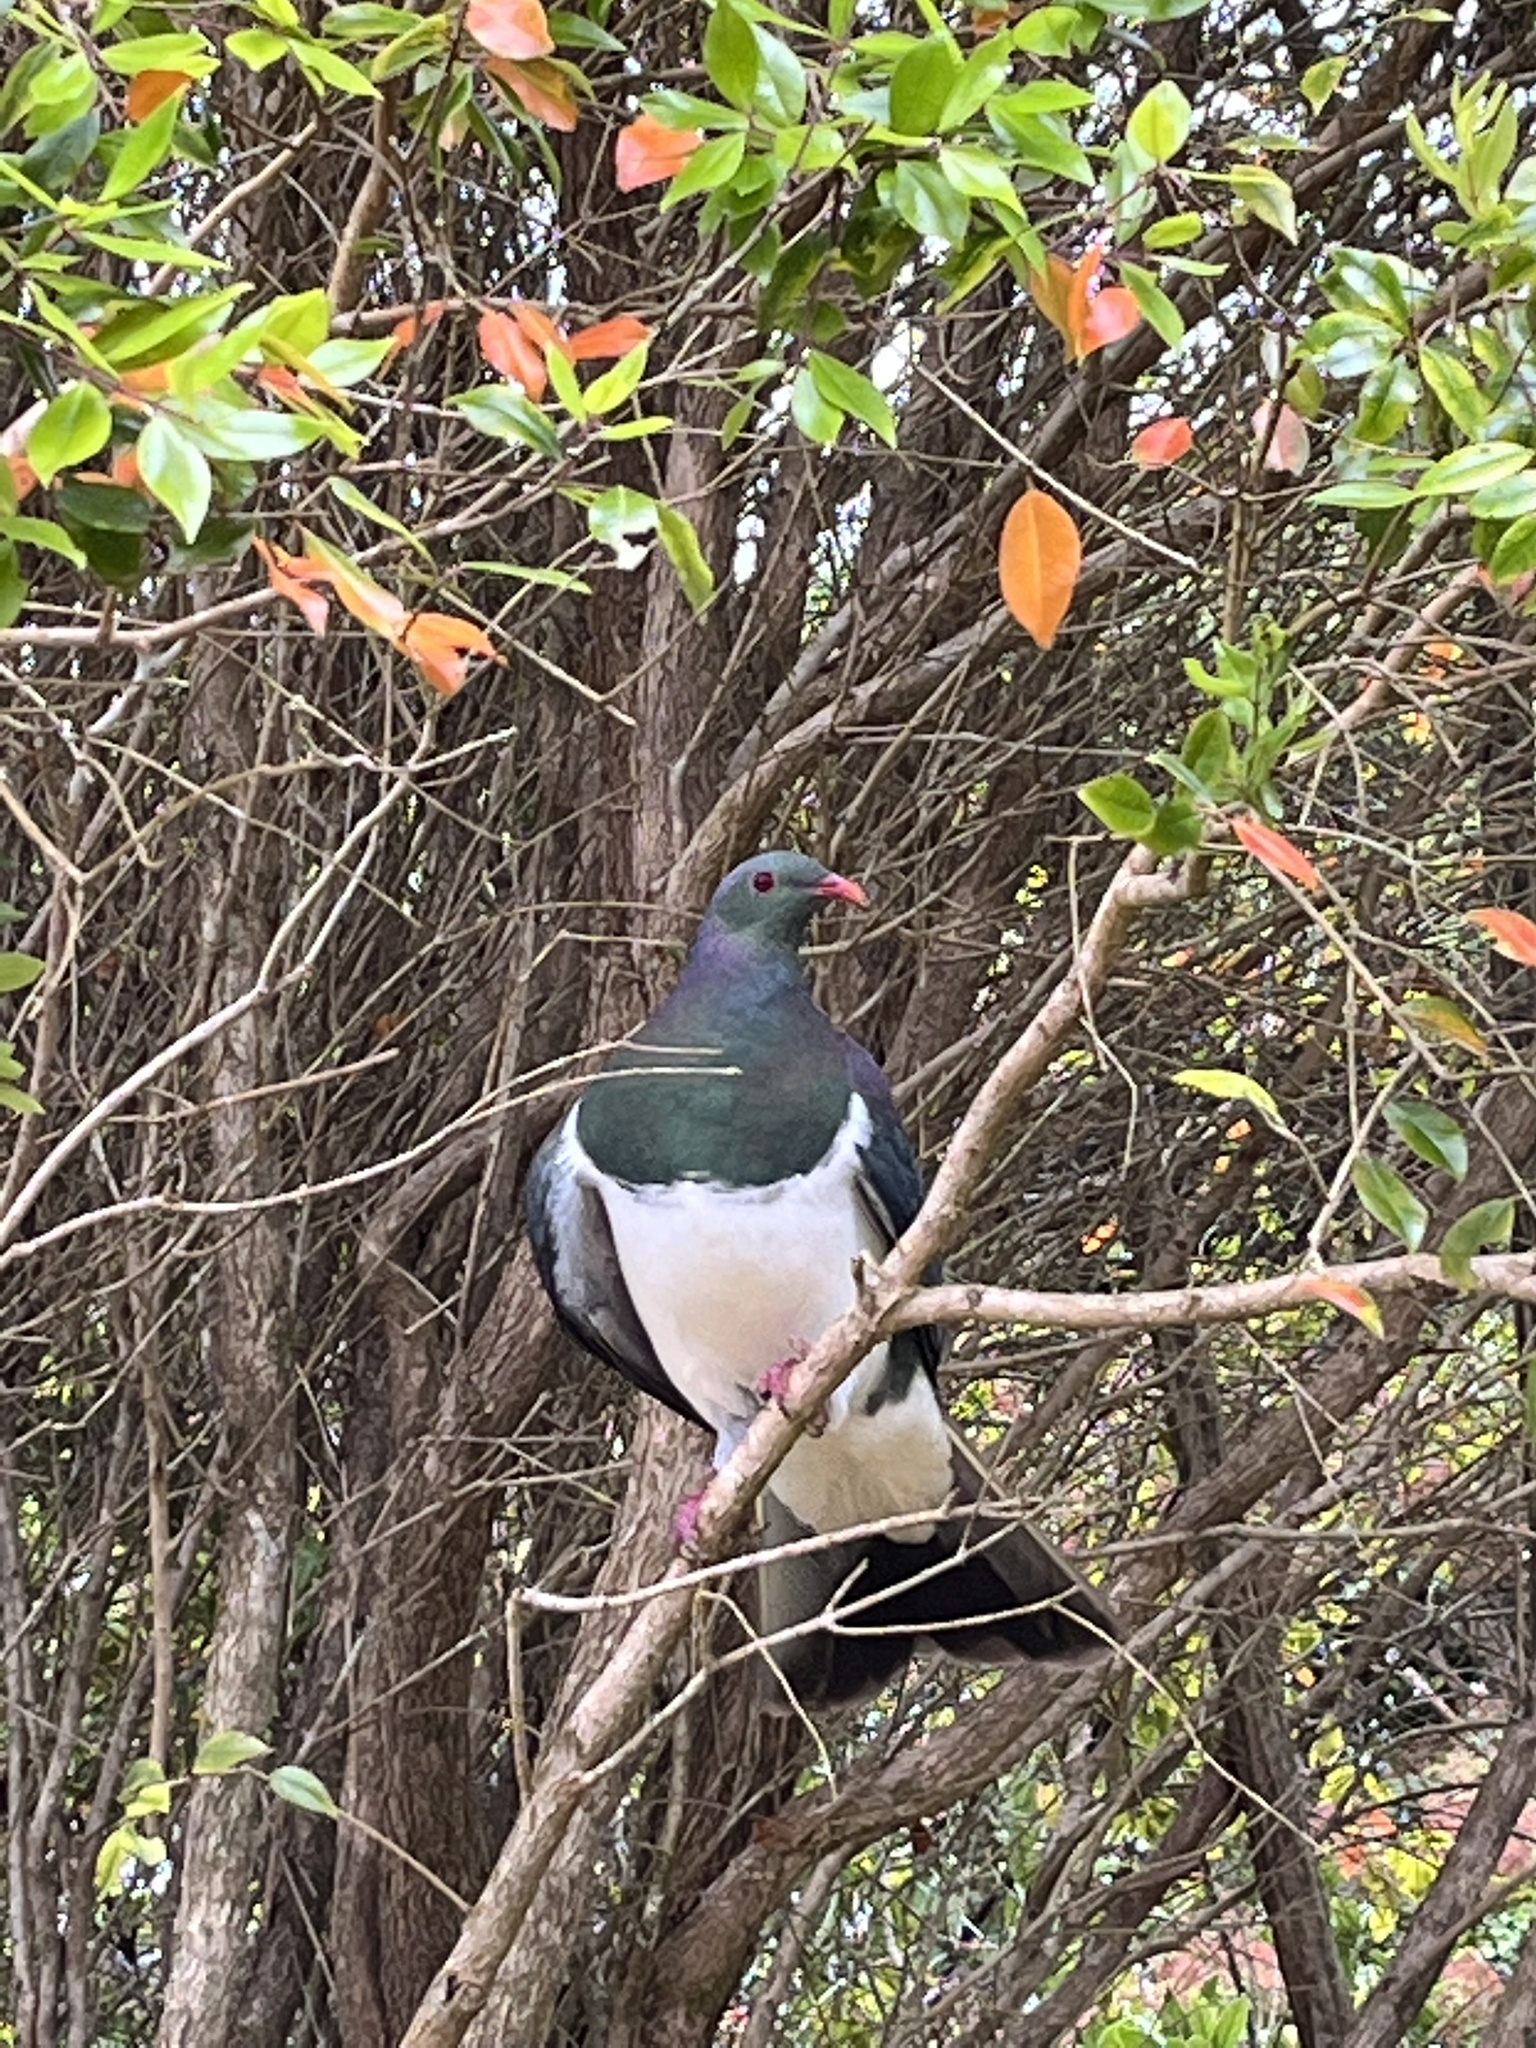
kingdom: Animalia
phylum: Chordata
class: Aves
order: Columbiformes
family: Columbidae
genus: Hemiphaga
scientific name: Hemiphaga novaeseelandiae
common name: New zealand pigeon
